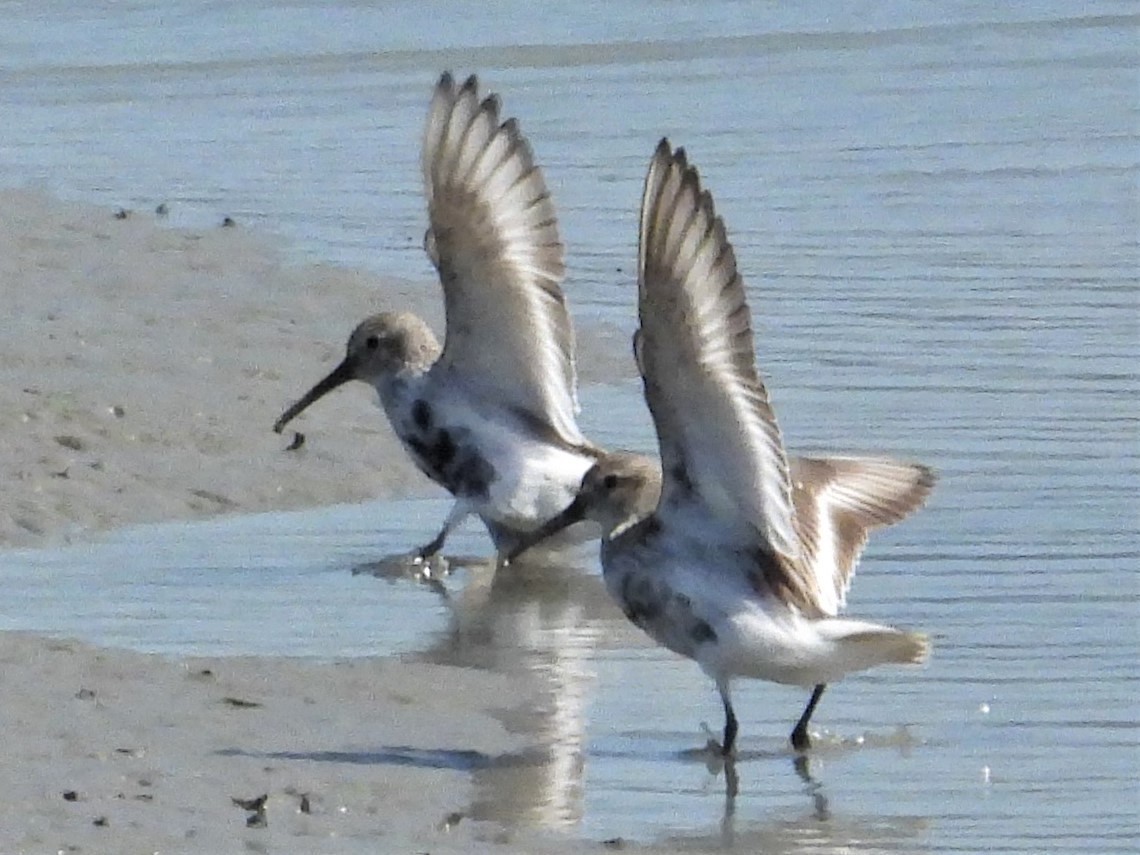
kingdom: Animalia
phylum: Chordata
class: Aves
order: Charadriiformes
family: Scolopacidae
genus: Calidris
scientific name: Calidris alpina
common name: Dunlin
